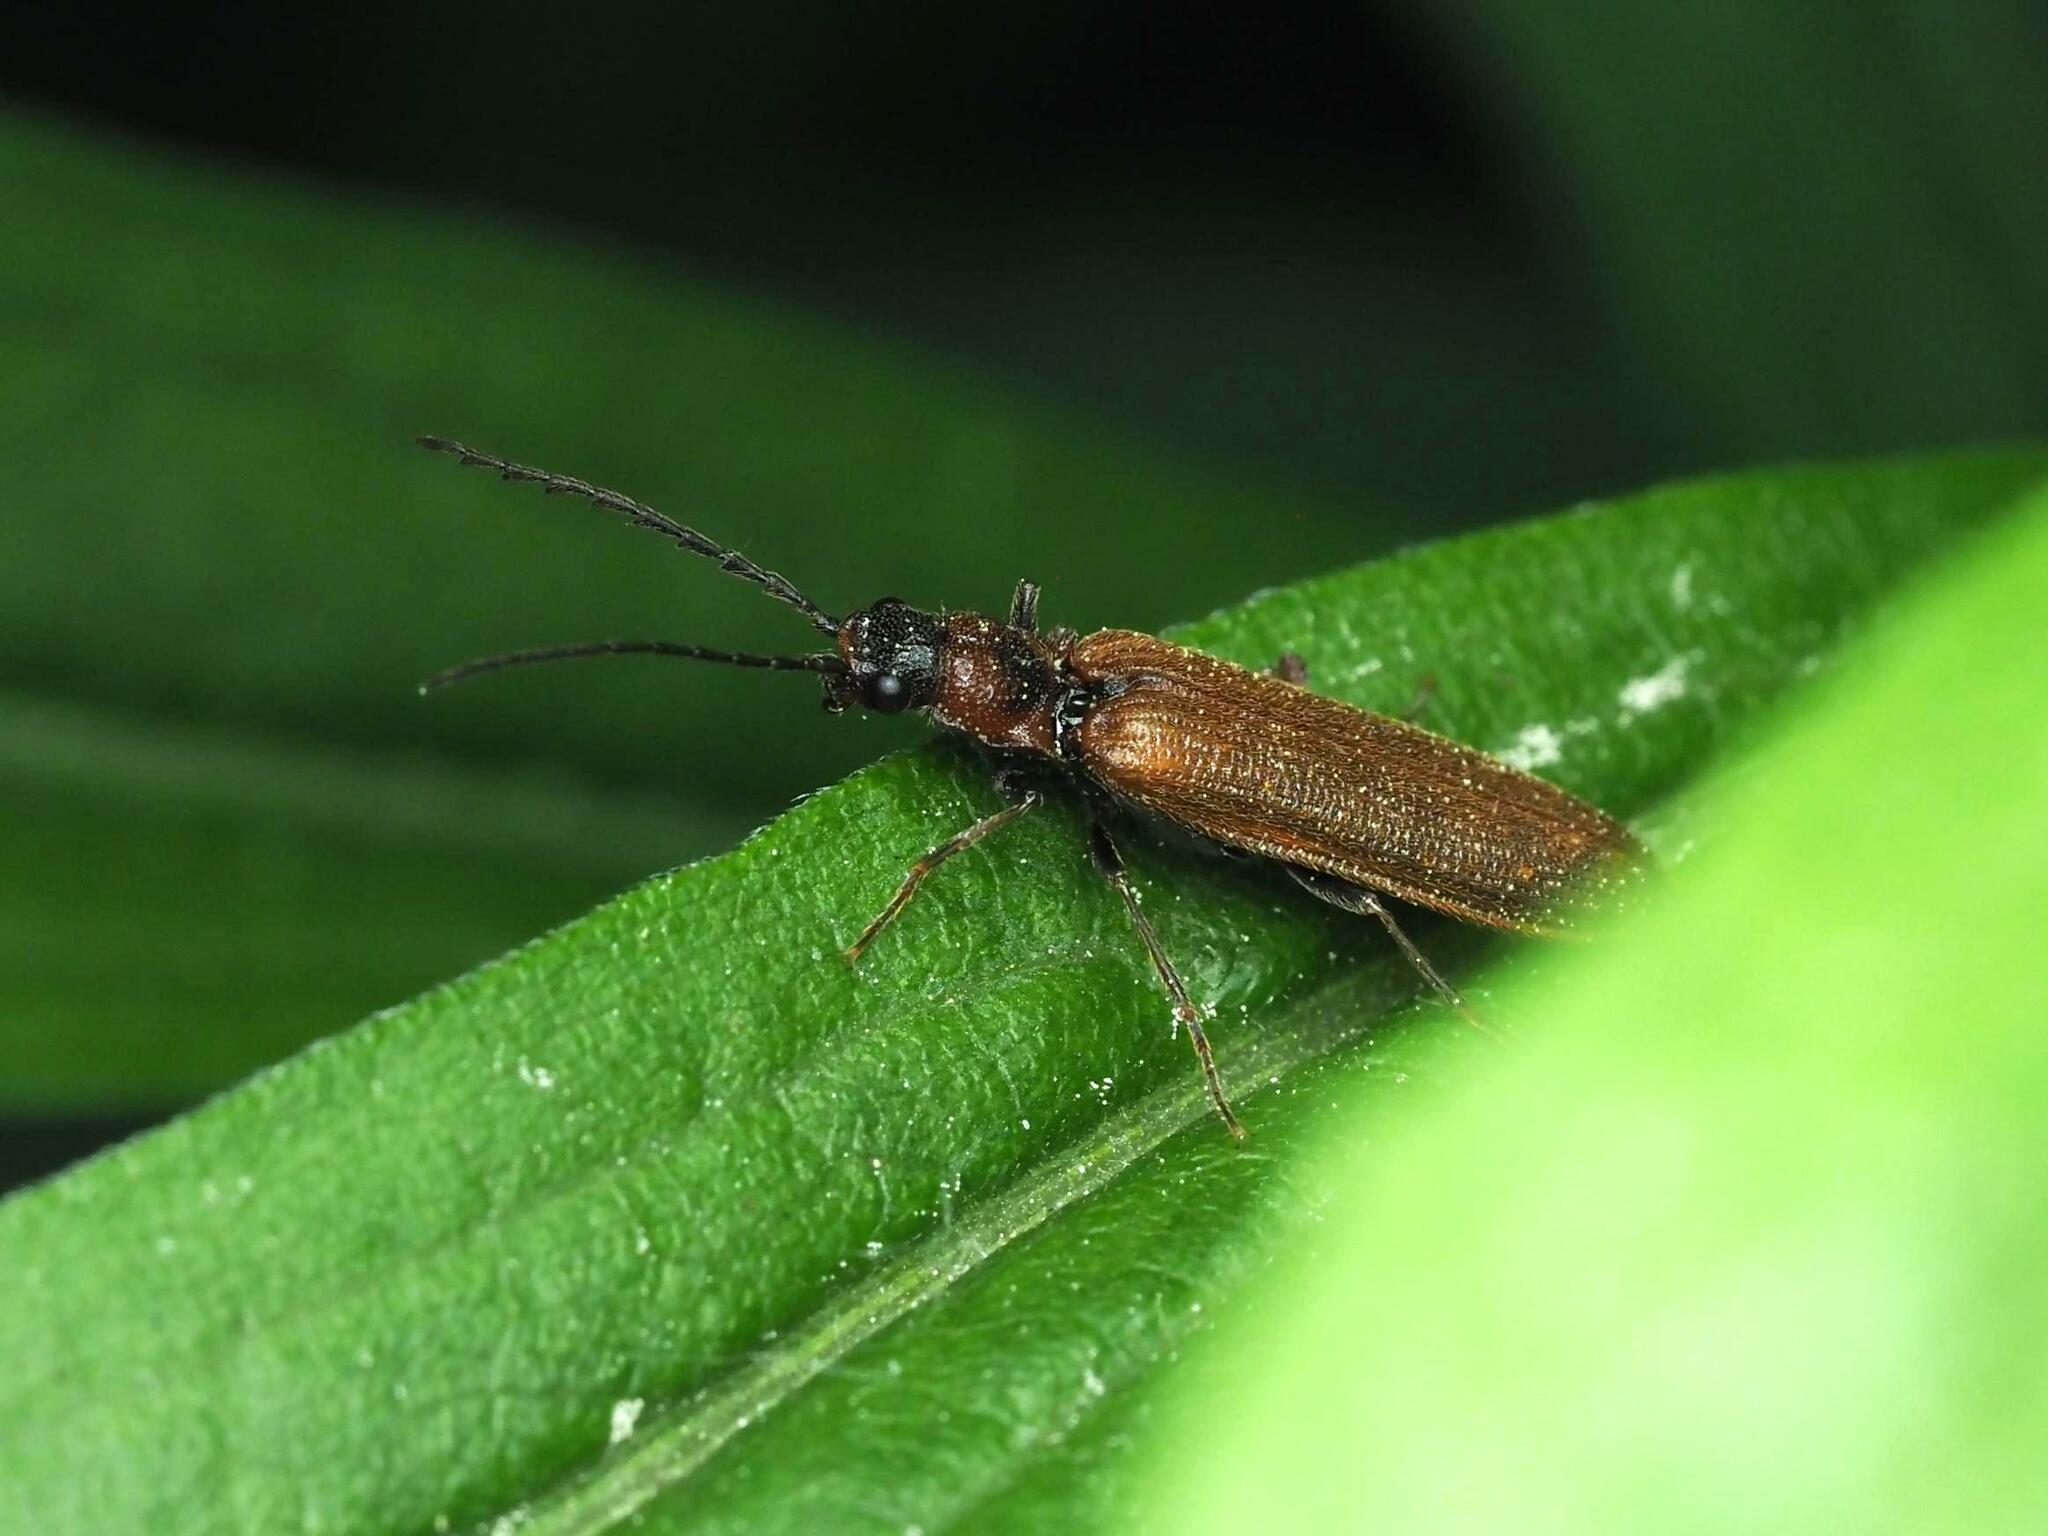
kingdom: Animalia
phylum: Arthropoda
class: Insecta
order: Coleoptera
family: Elateridae
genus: Denticollis
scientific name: Denticollis linearis
